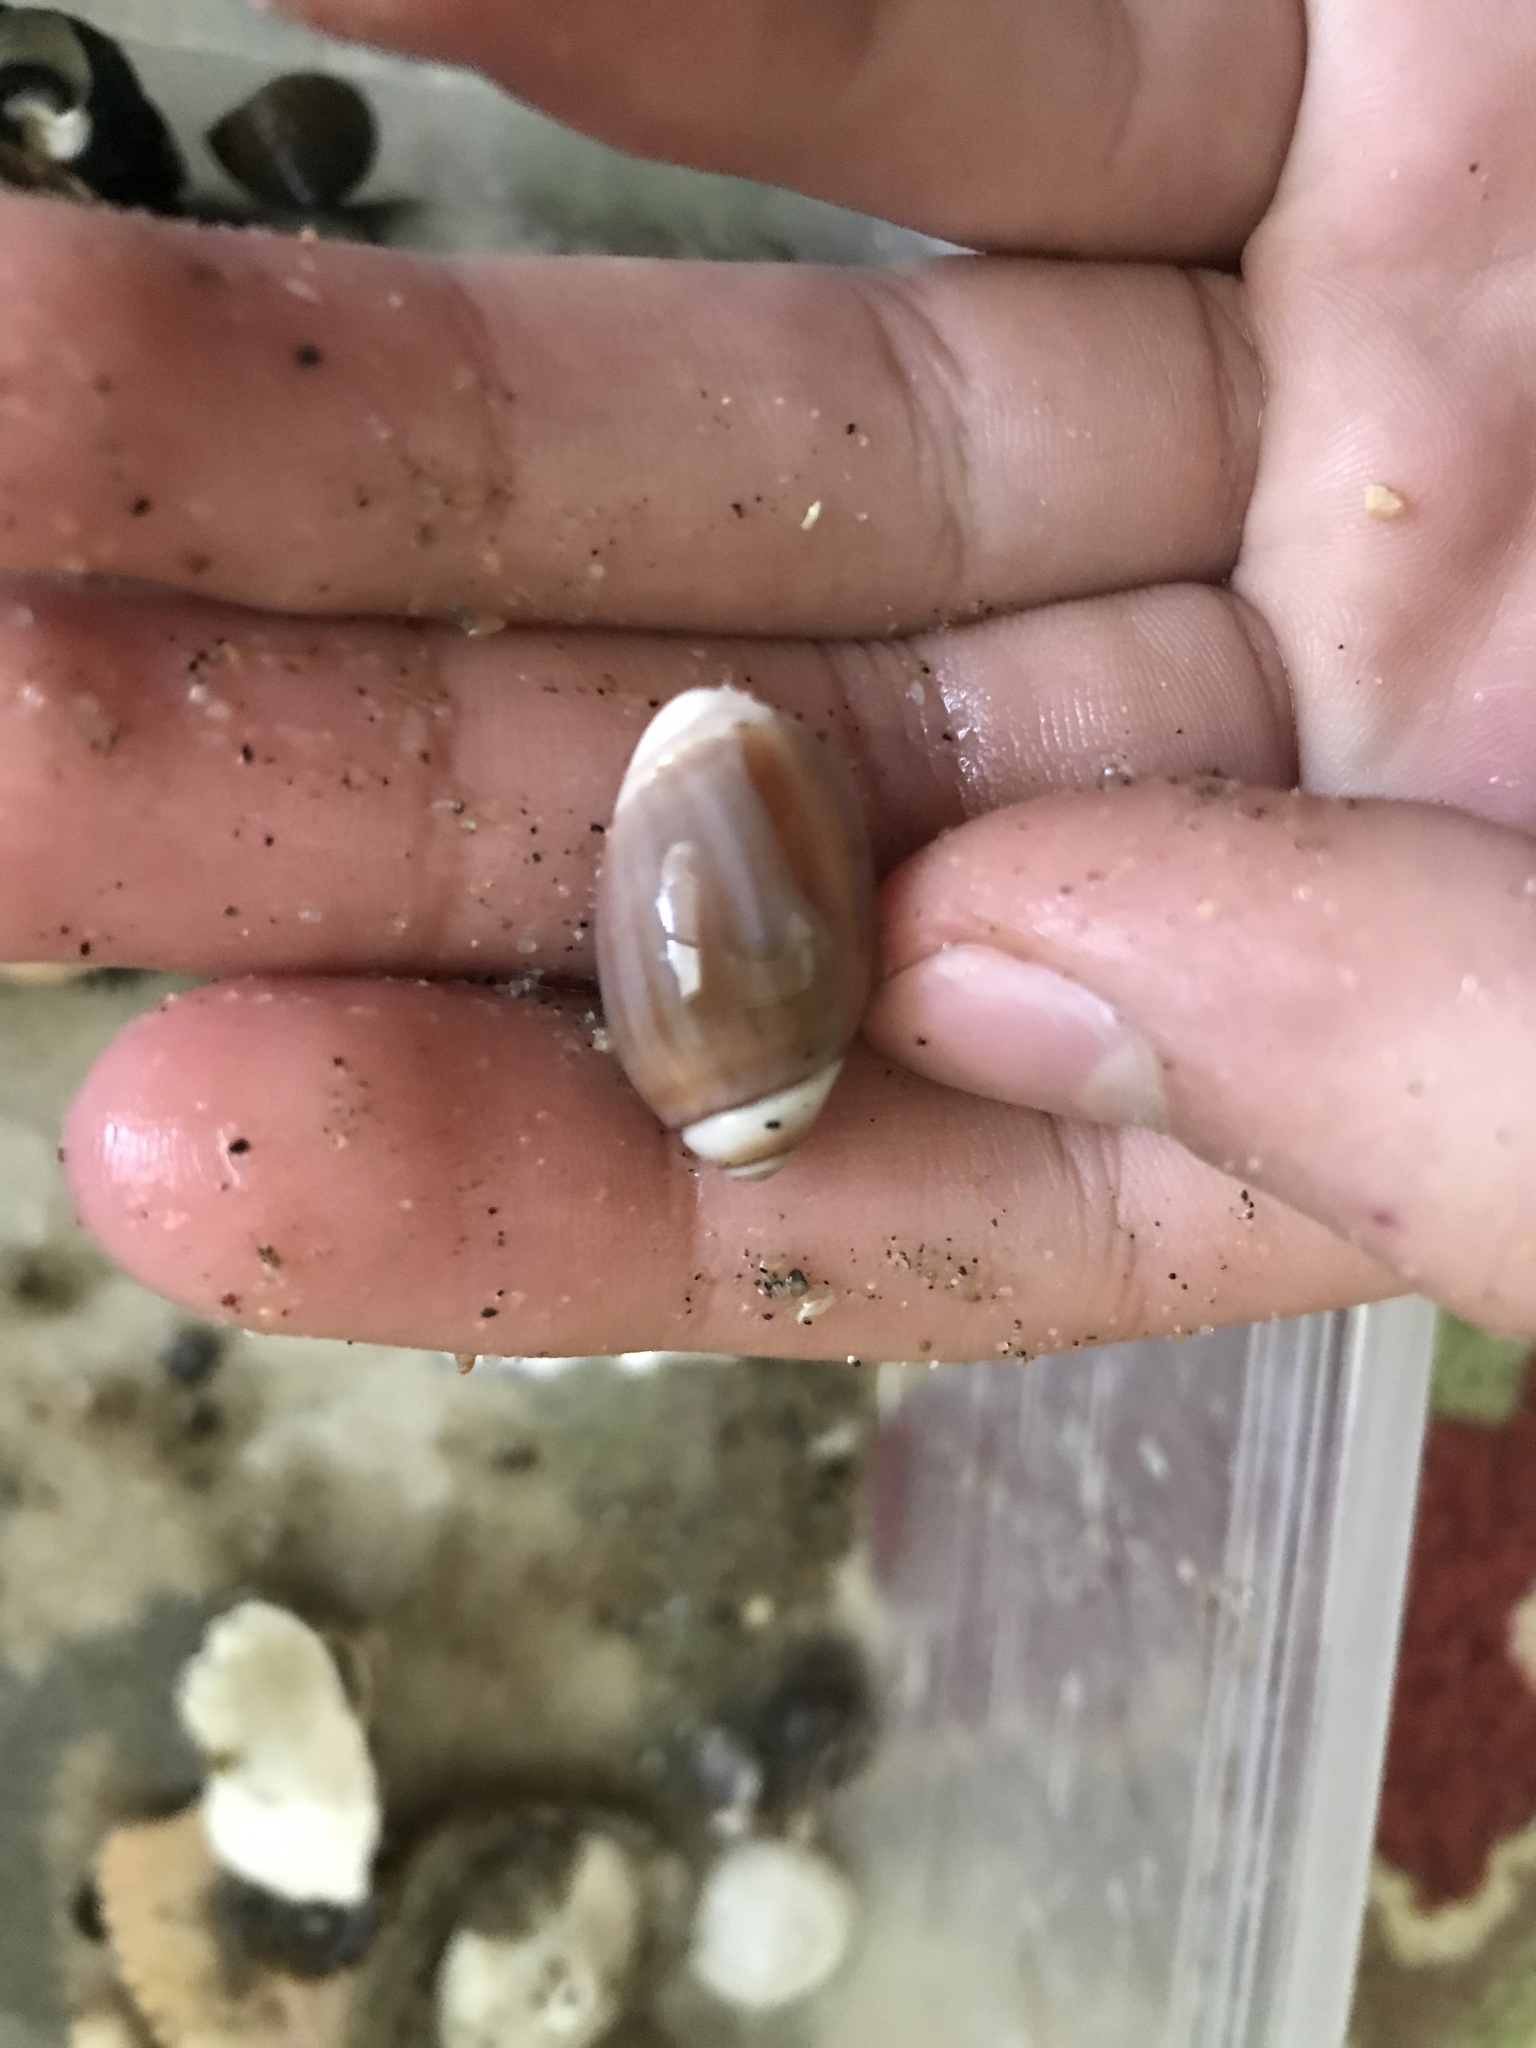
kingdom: Animalia
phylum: Mollusca
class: Gastropoda
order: Neogastropoda
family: Olividae
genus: Callianax
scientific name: Callianax biplicata
